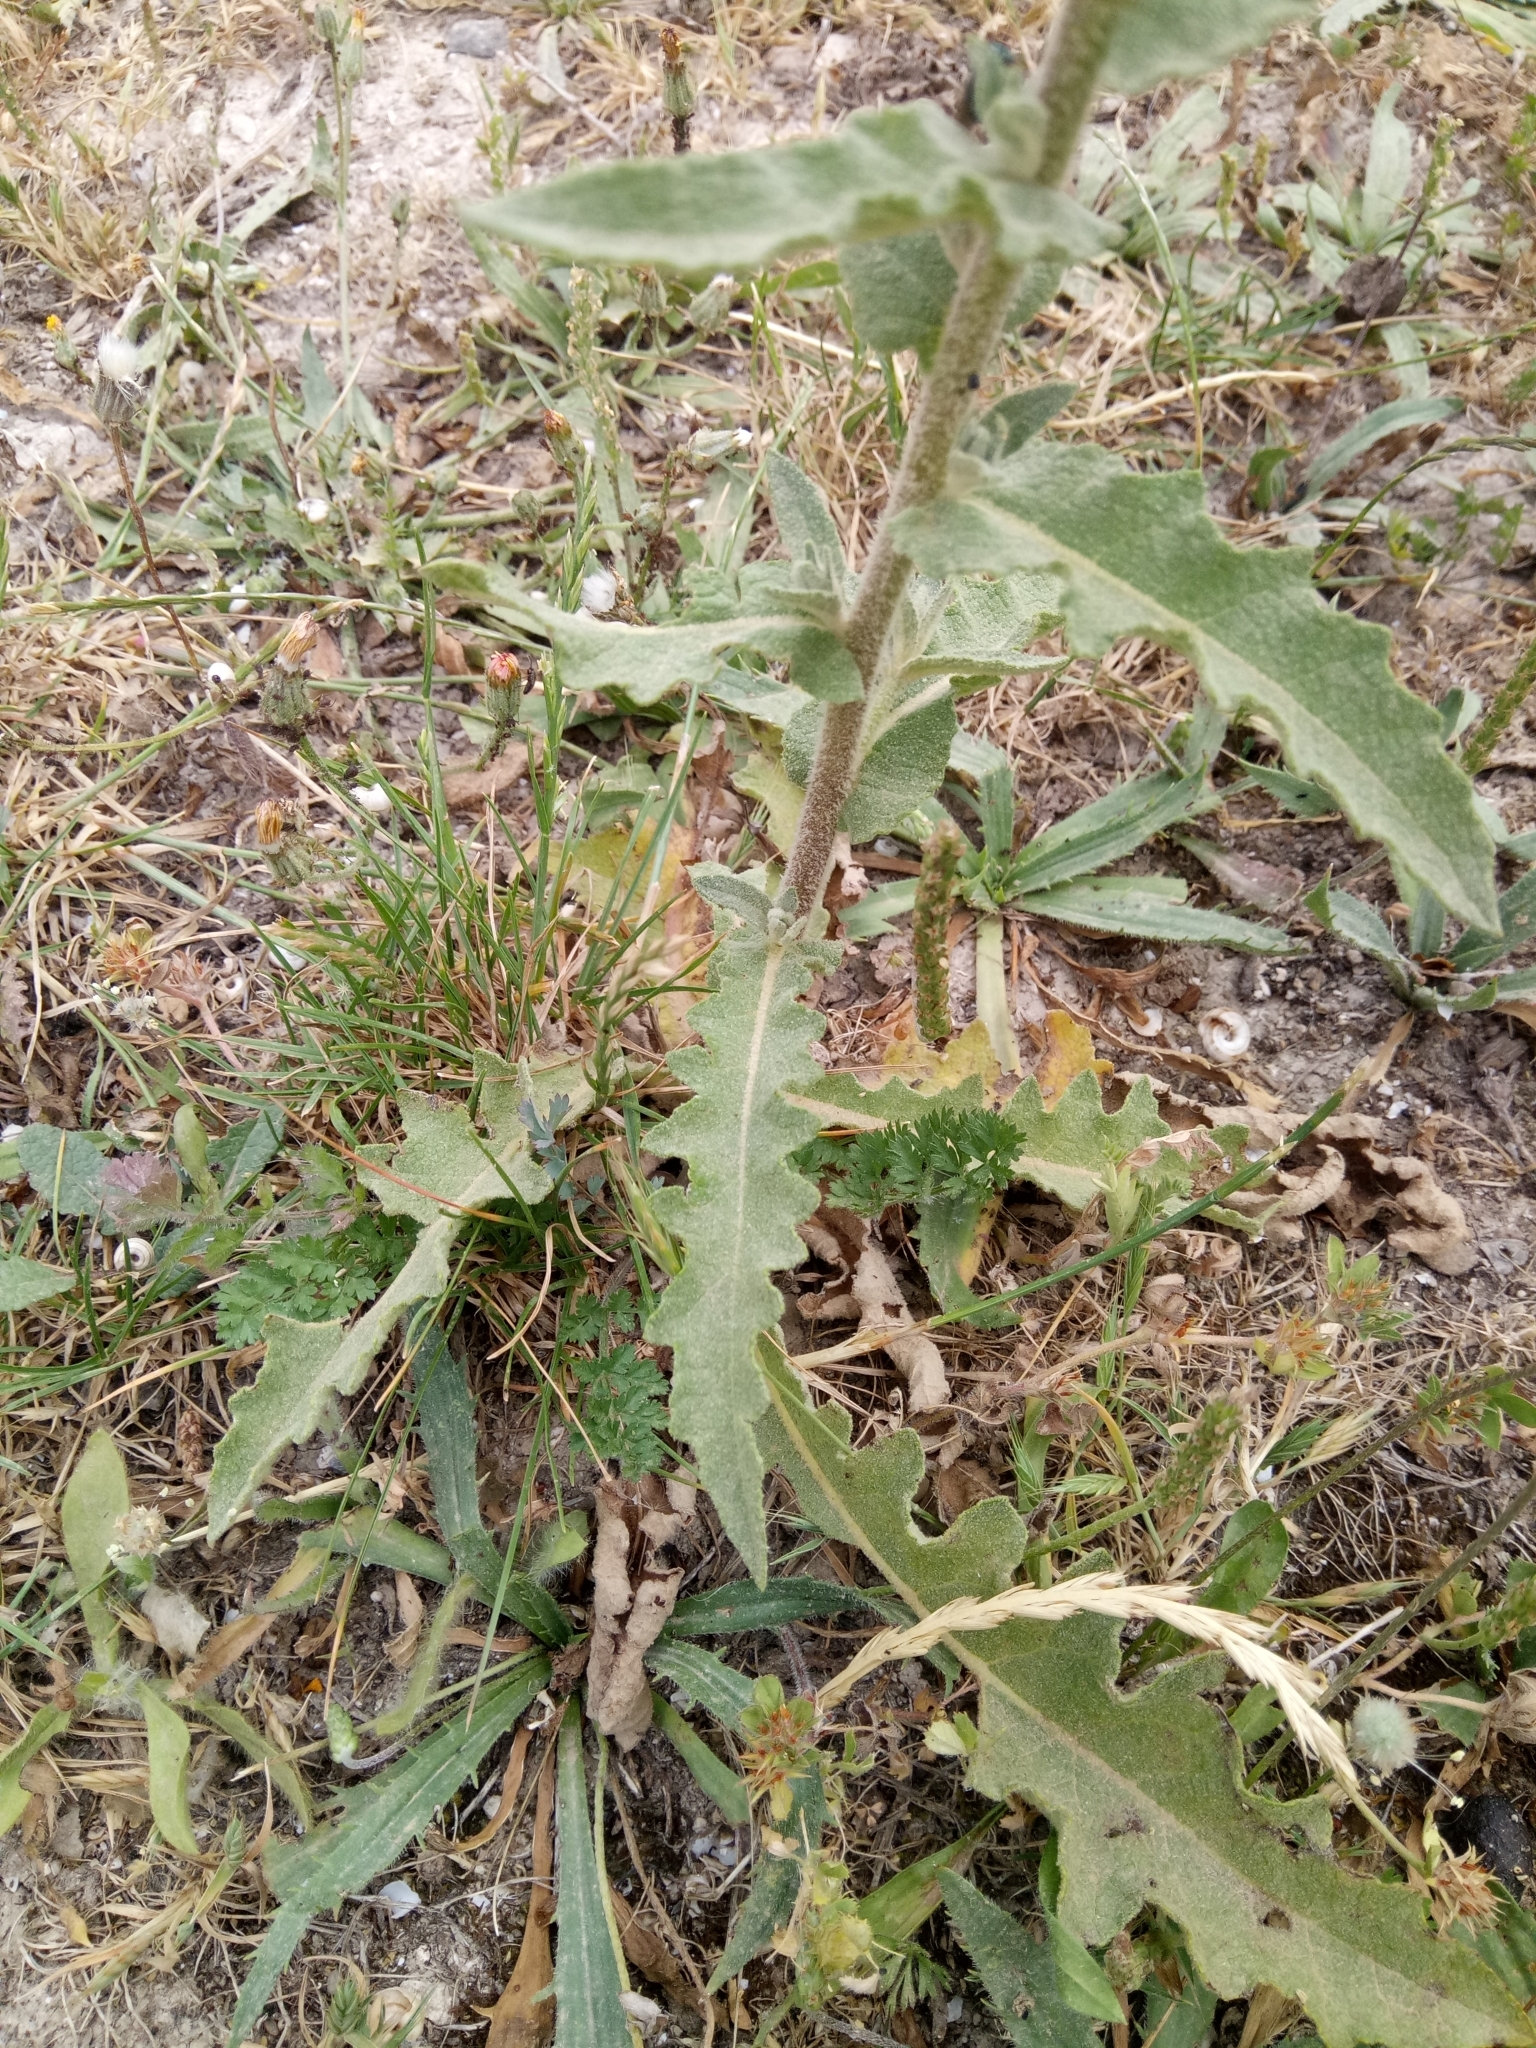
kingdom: Plantae
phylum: Tracheophyta
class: Magnoliopsida
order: Lamiales
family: Scrophulariaceae
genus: Verbascum
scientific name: Verbascum sinuatum
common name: Wavyleaf mullein
